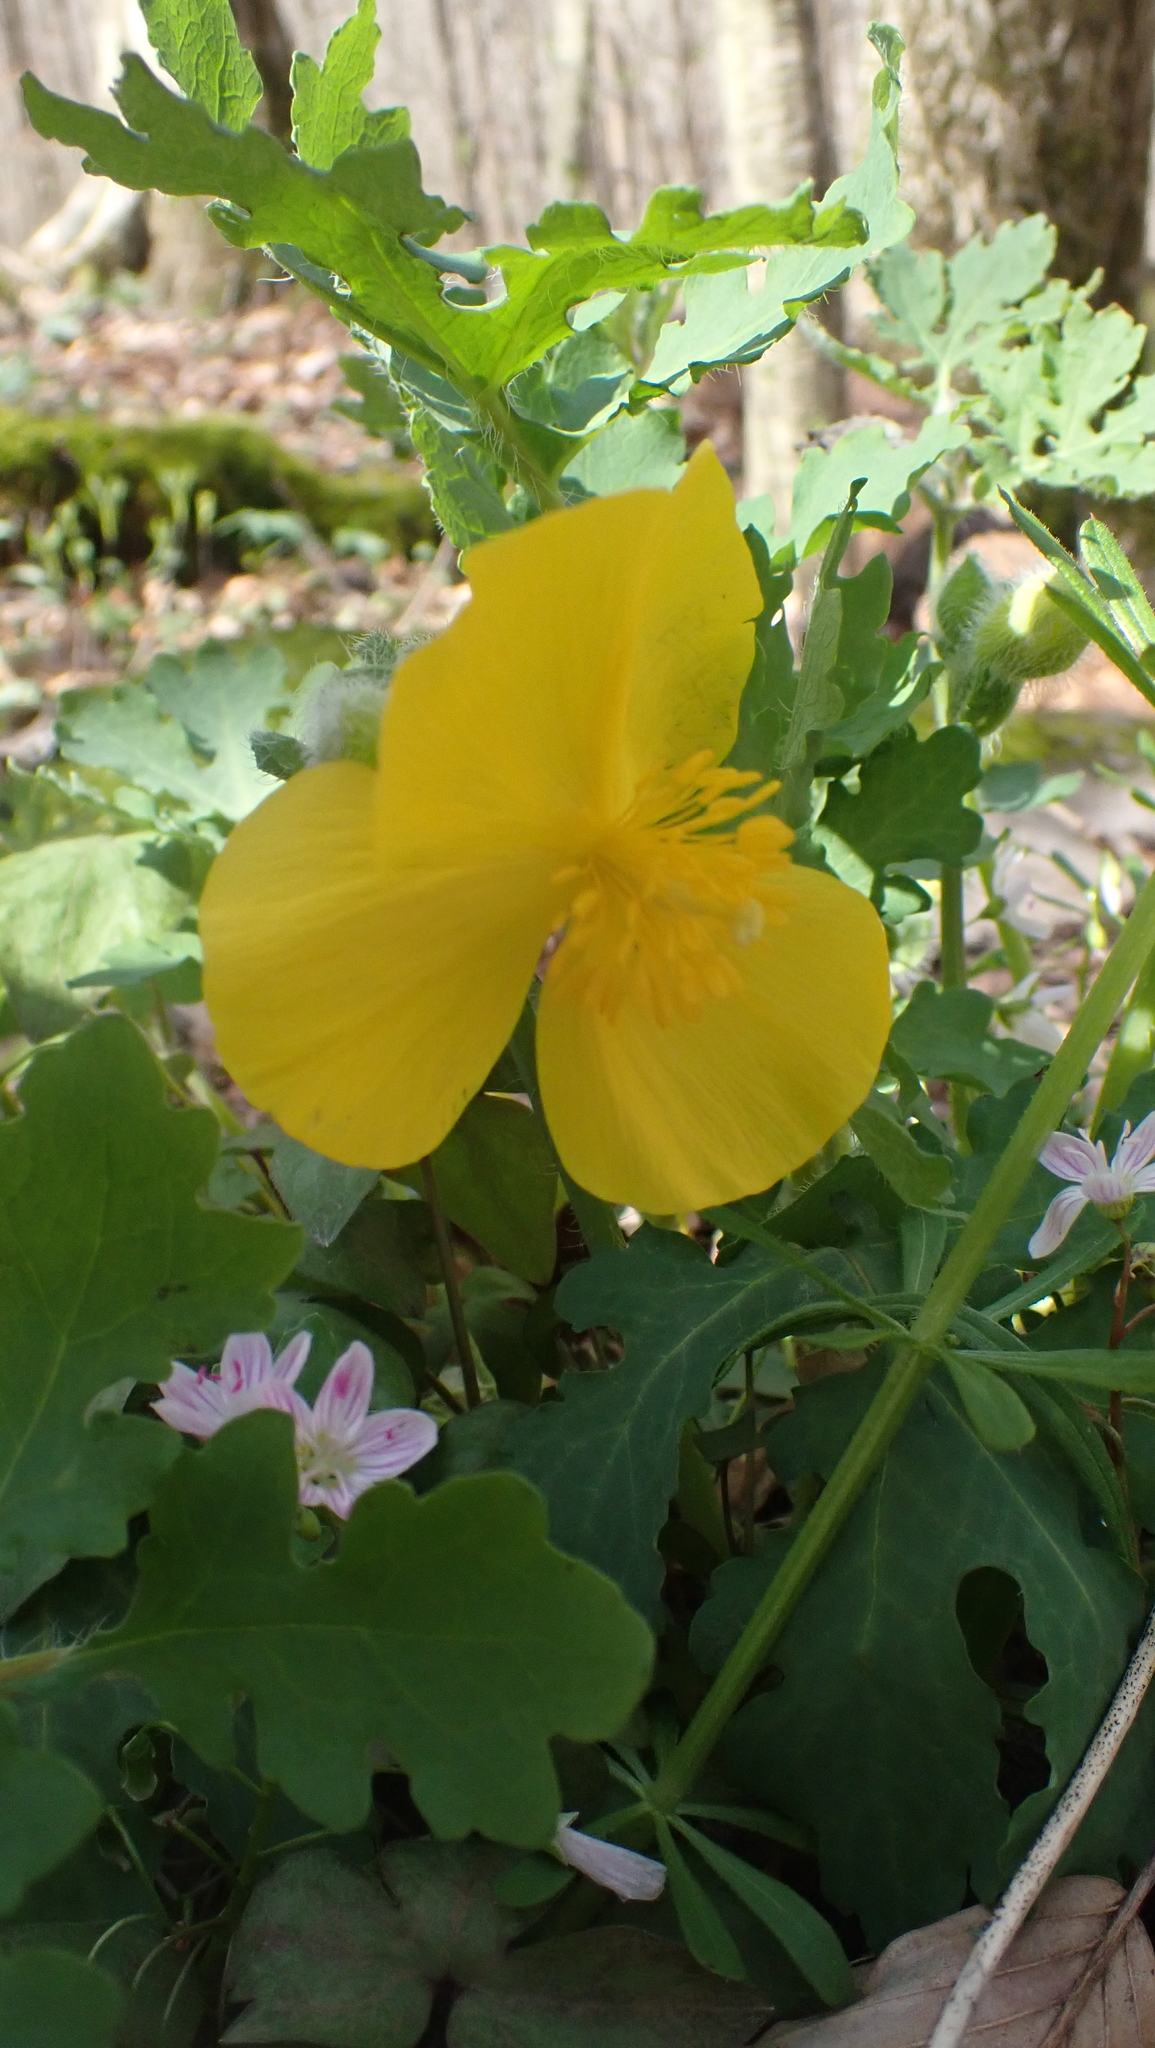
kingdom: Plantae
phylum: Tracheophyta
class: Magnoliopsida
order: Ranunculales
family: Papaveraceae
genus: Stylophorum
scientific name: Stylophorum diphyllum
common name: Celandine poppy
